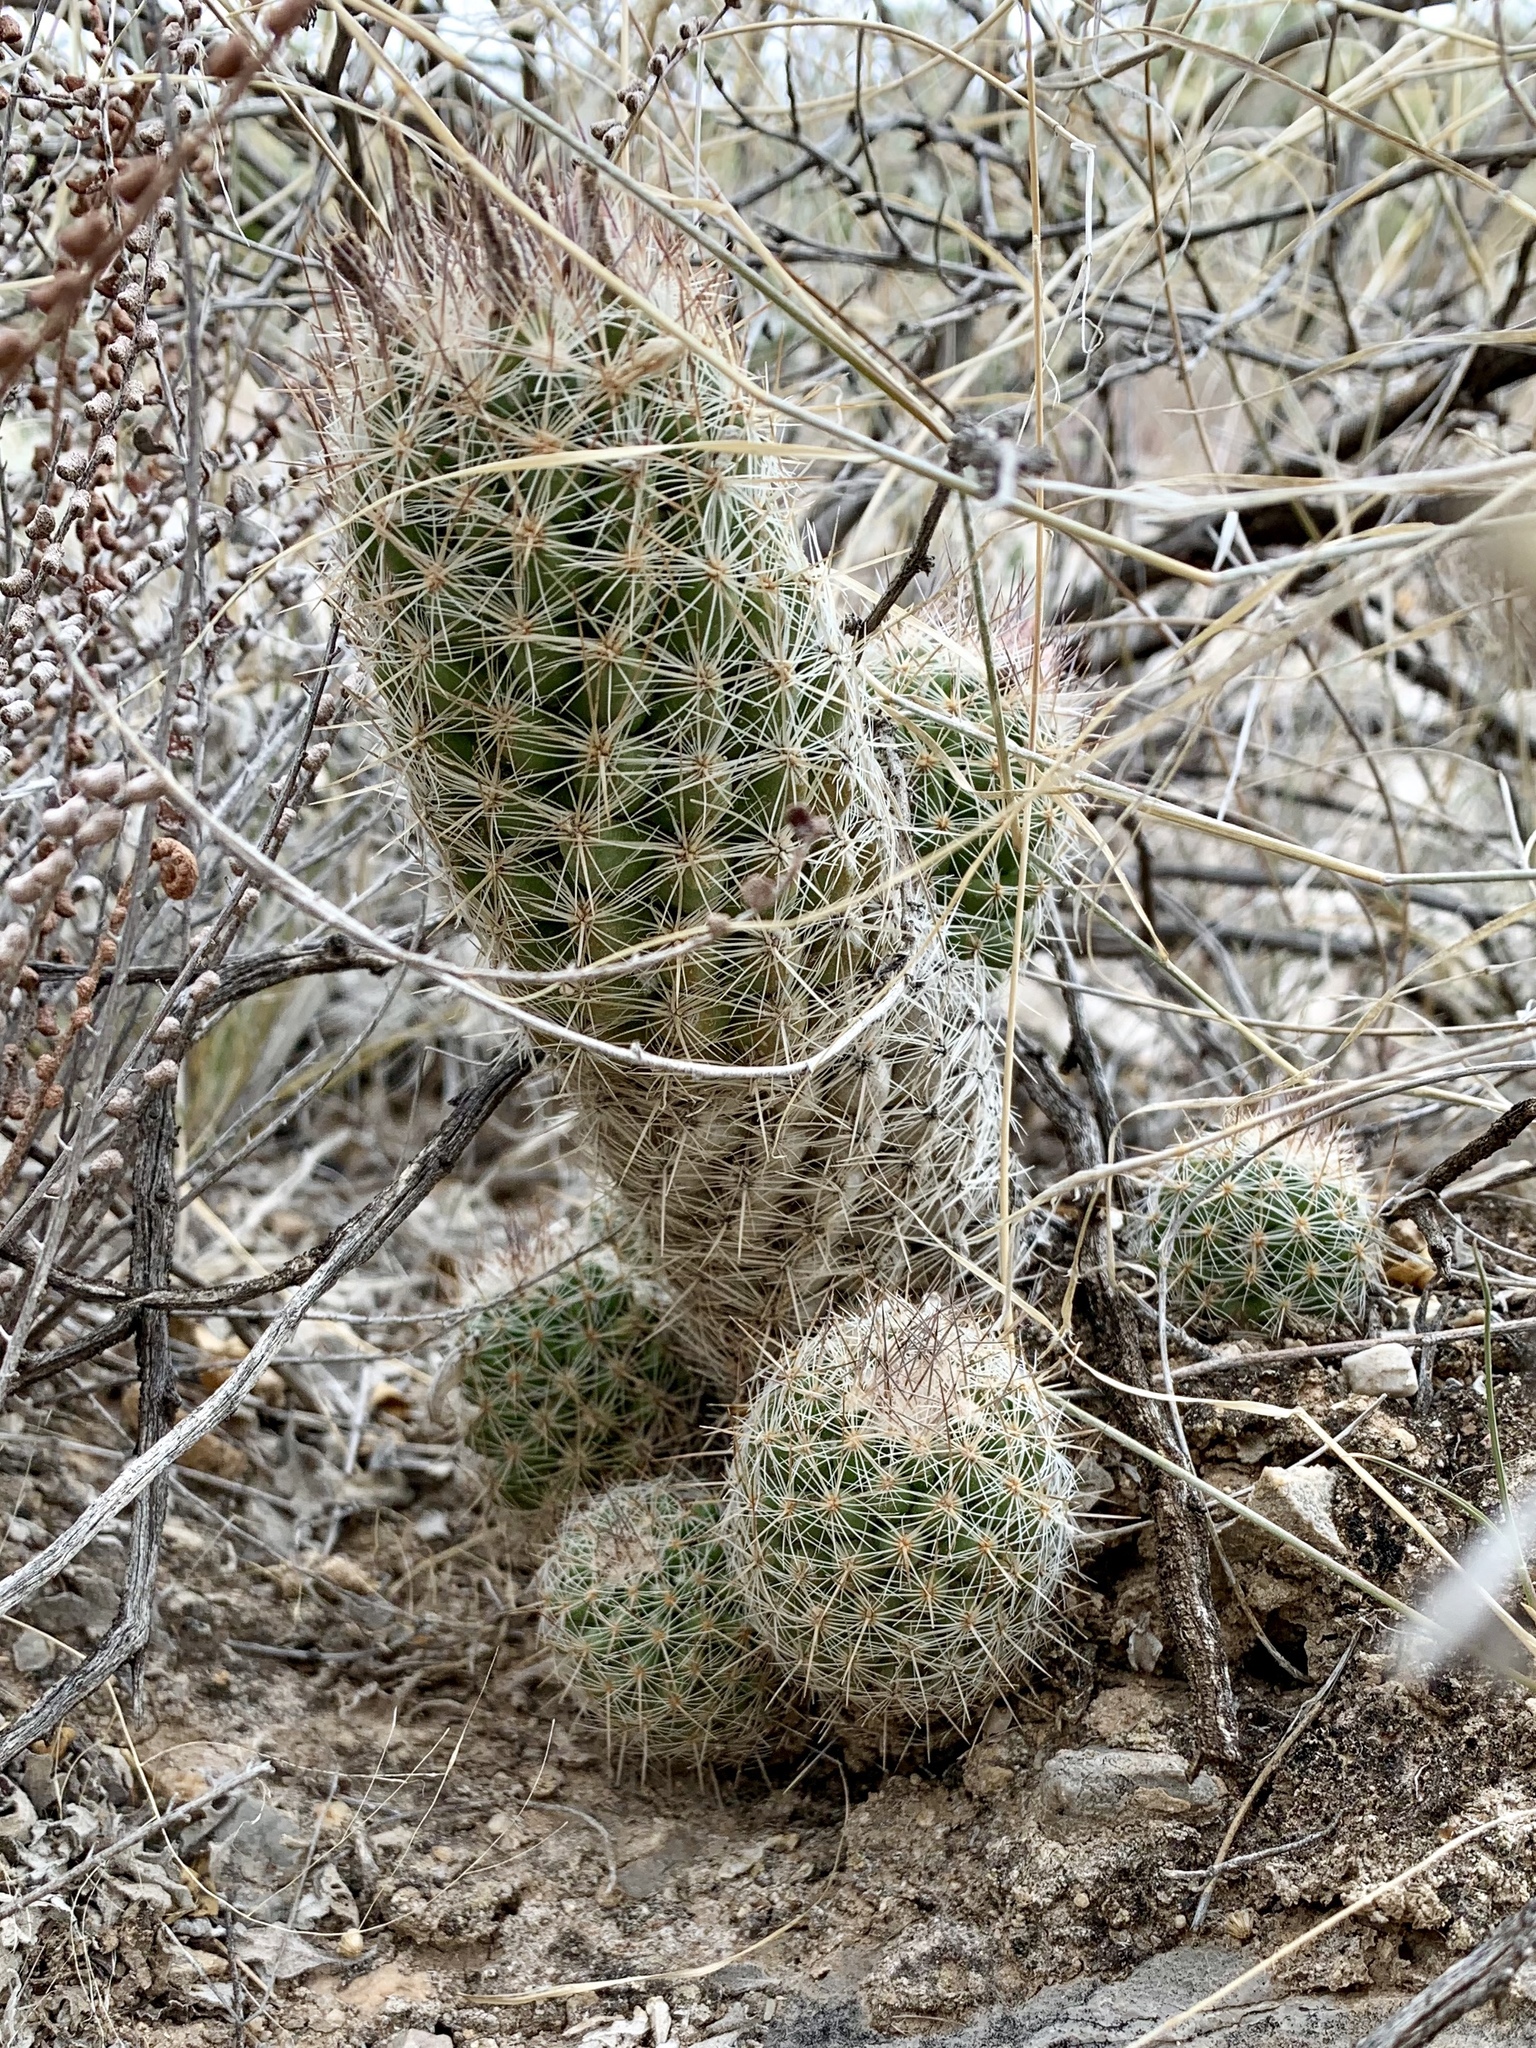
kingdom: Plantae
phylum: Tracheophyta
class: Magnoliopsida
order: Caryophyllales
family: Cactaceae
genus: Pelecyphora
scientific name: Pelecyphora tuberculosa
